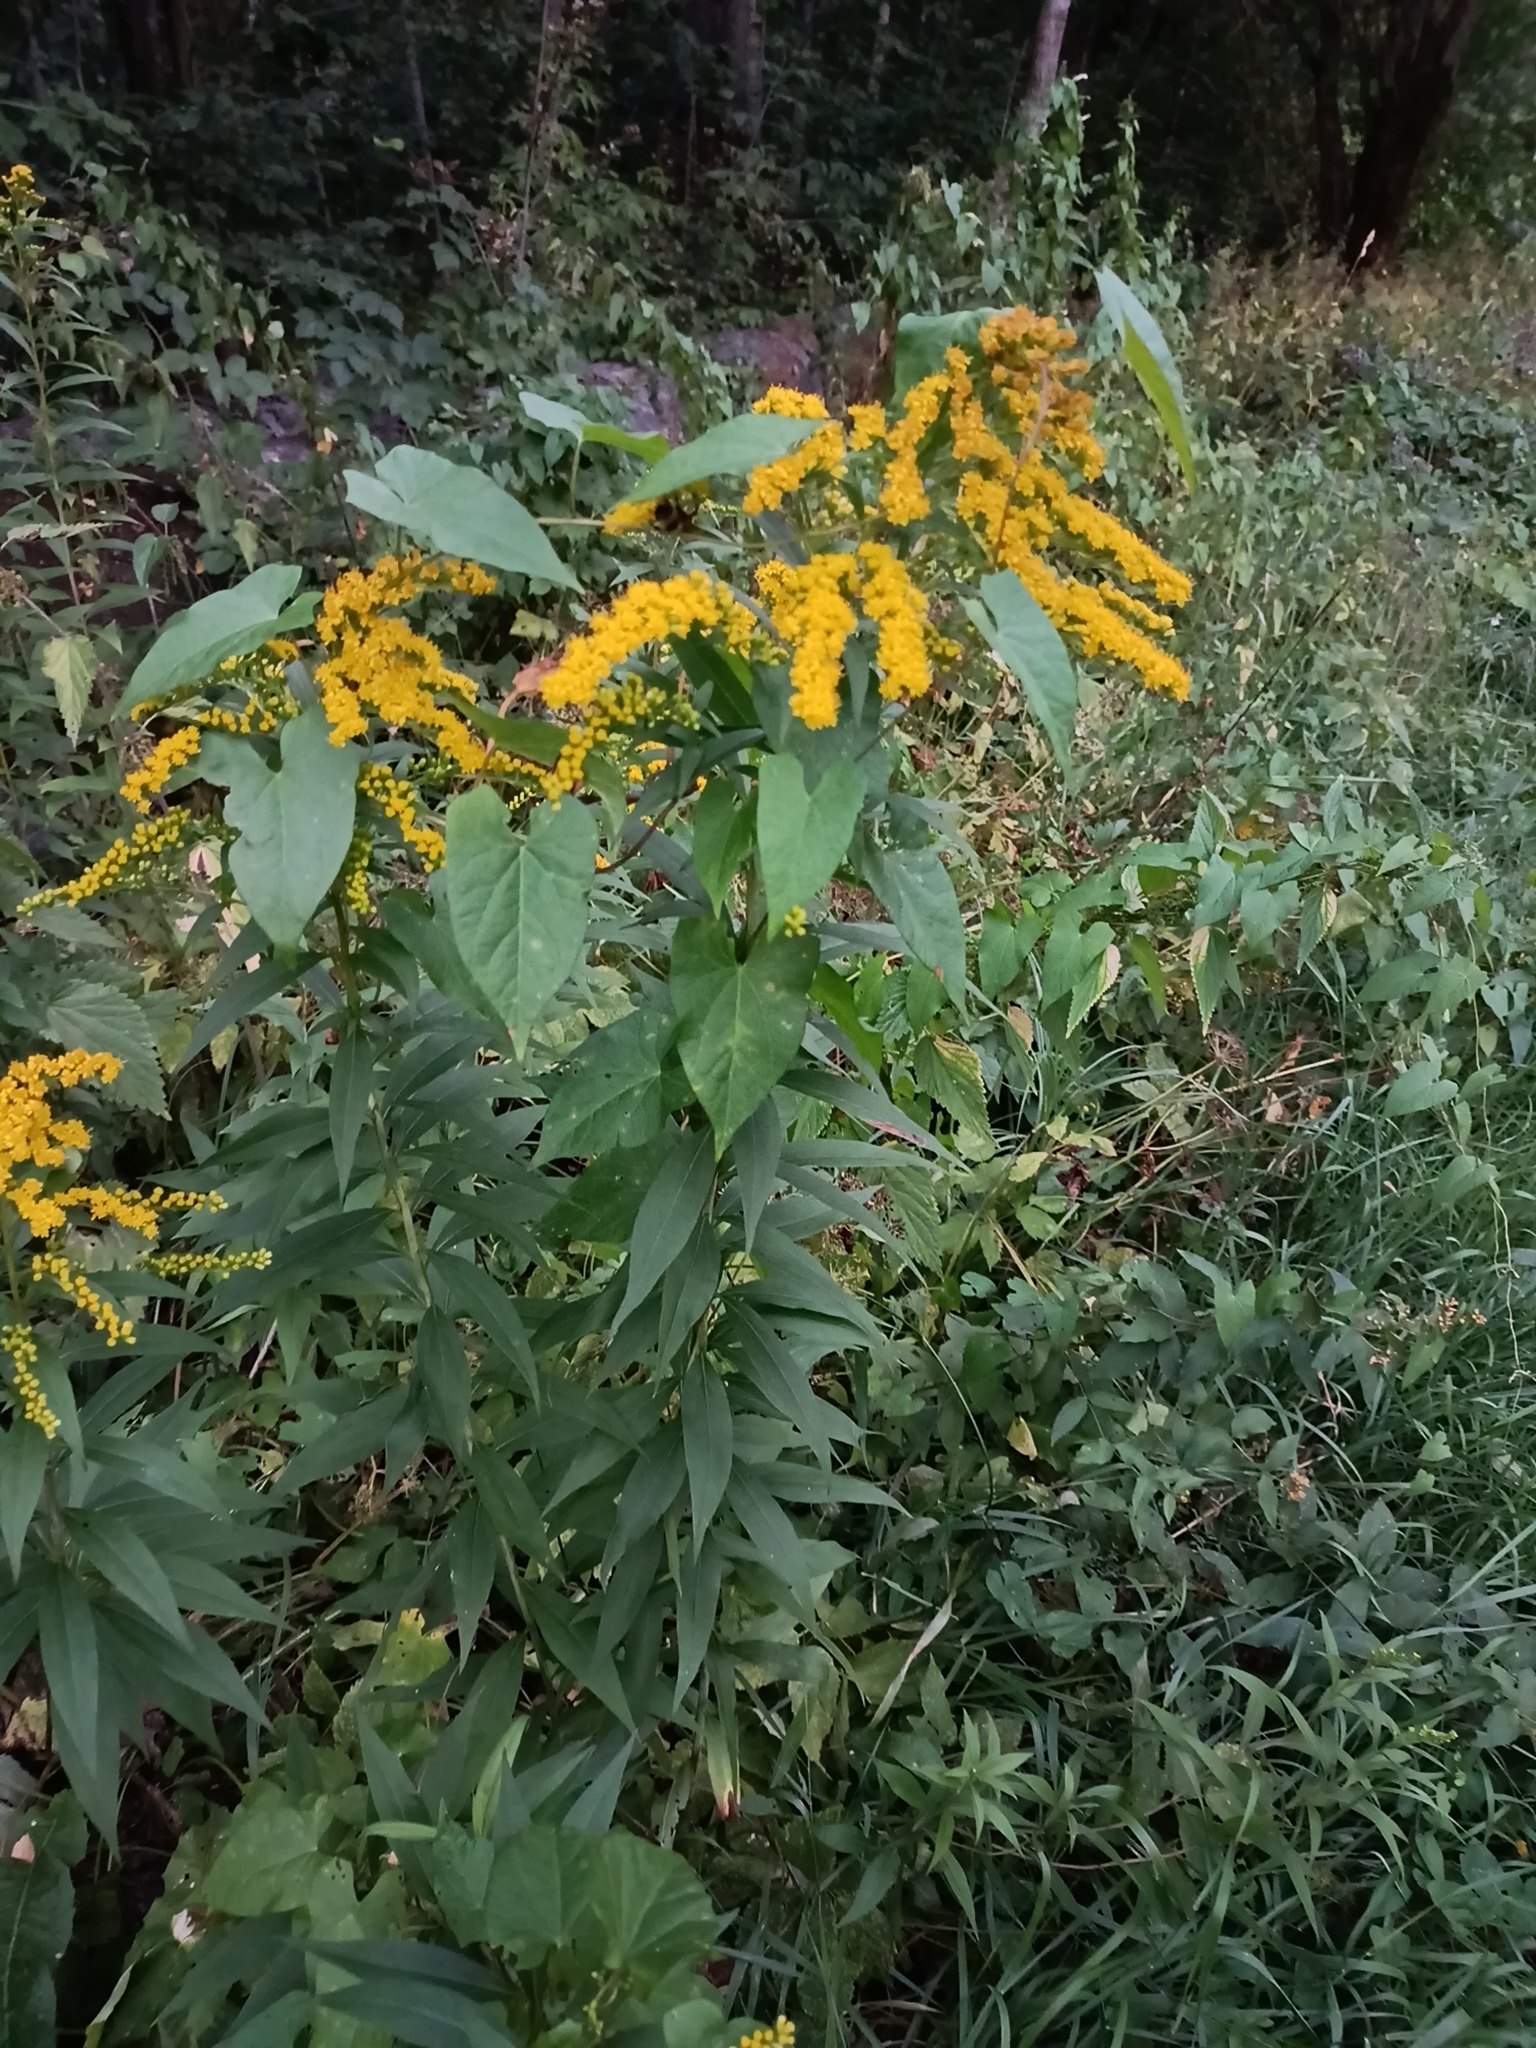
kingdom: Plantae
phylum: Tracheophyta
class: Magnoliopsida
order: Asterales
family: Asteraceae
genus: Solidago
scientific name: Solidago gigantea
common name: Giant goldenrod
